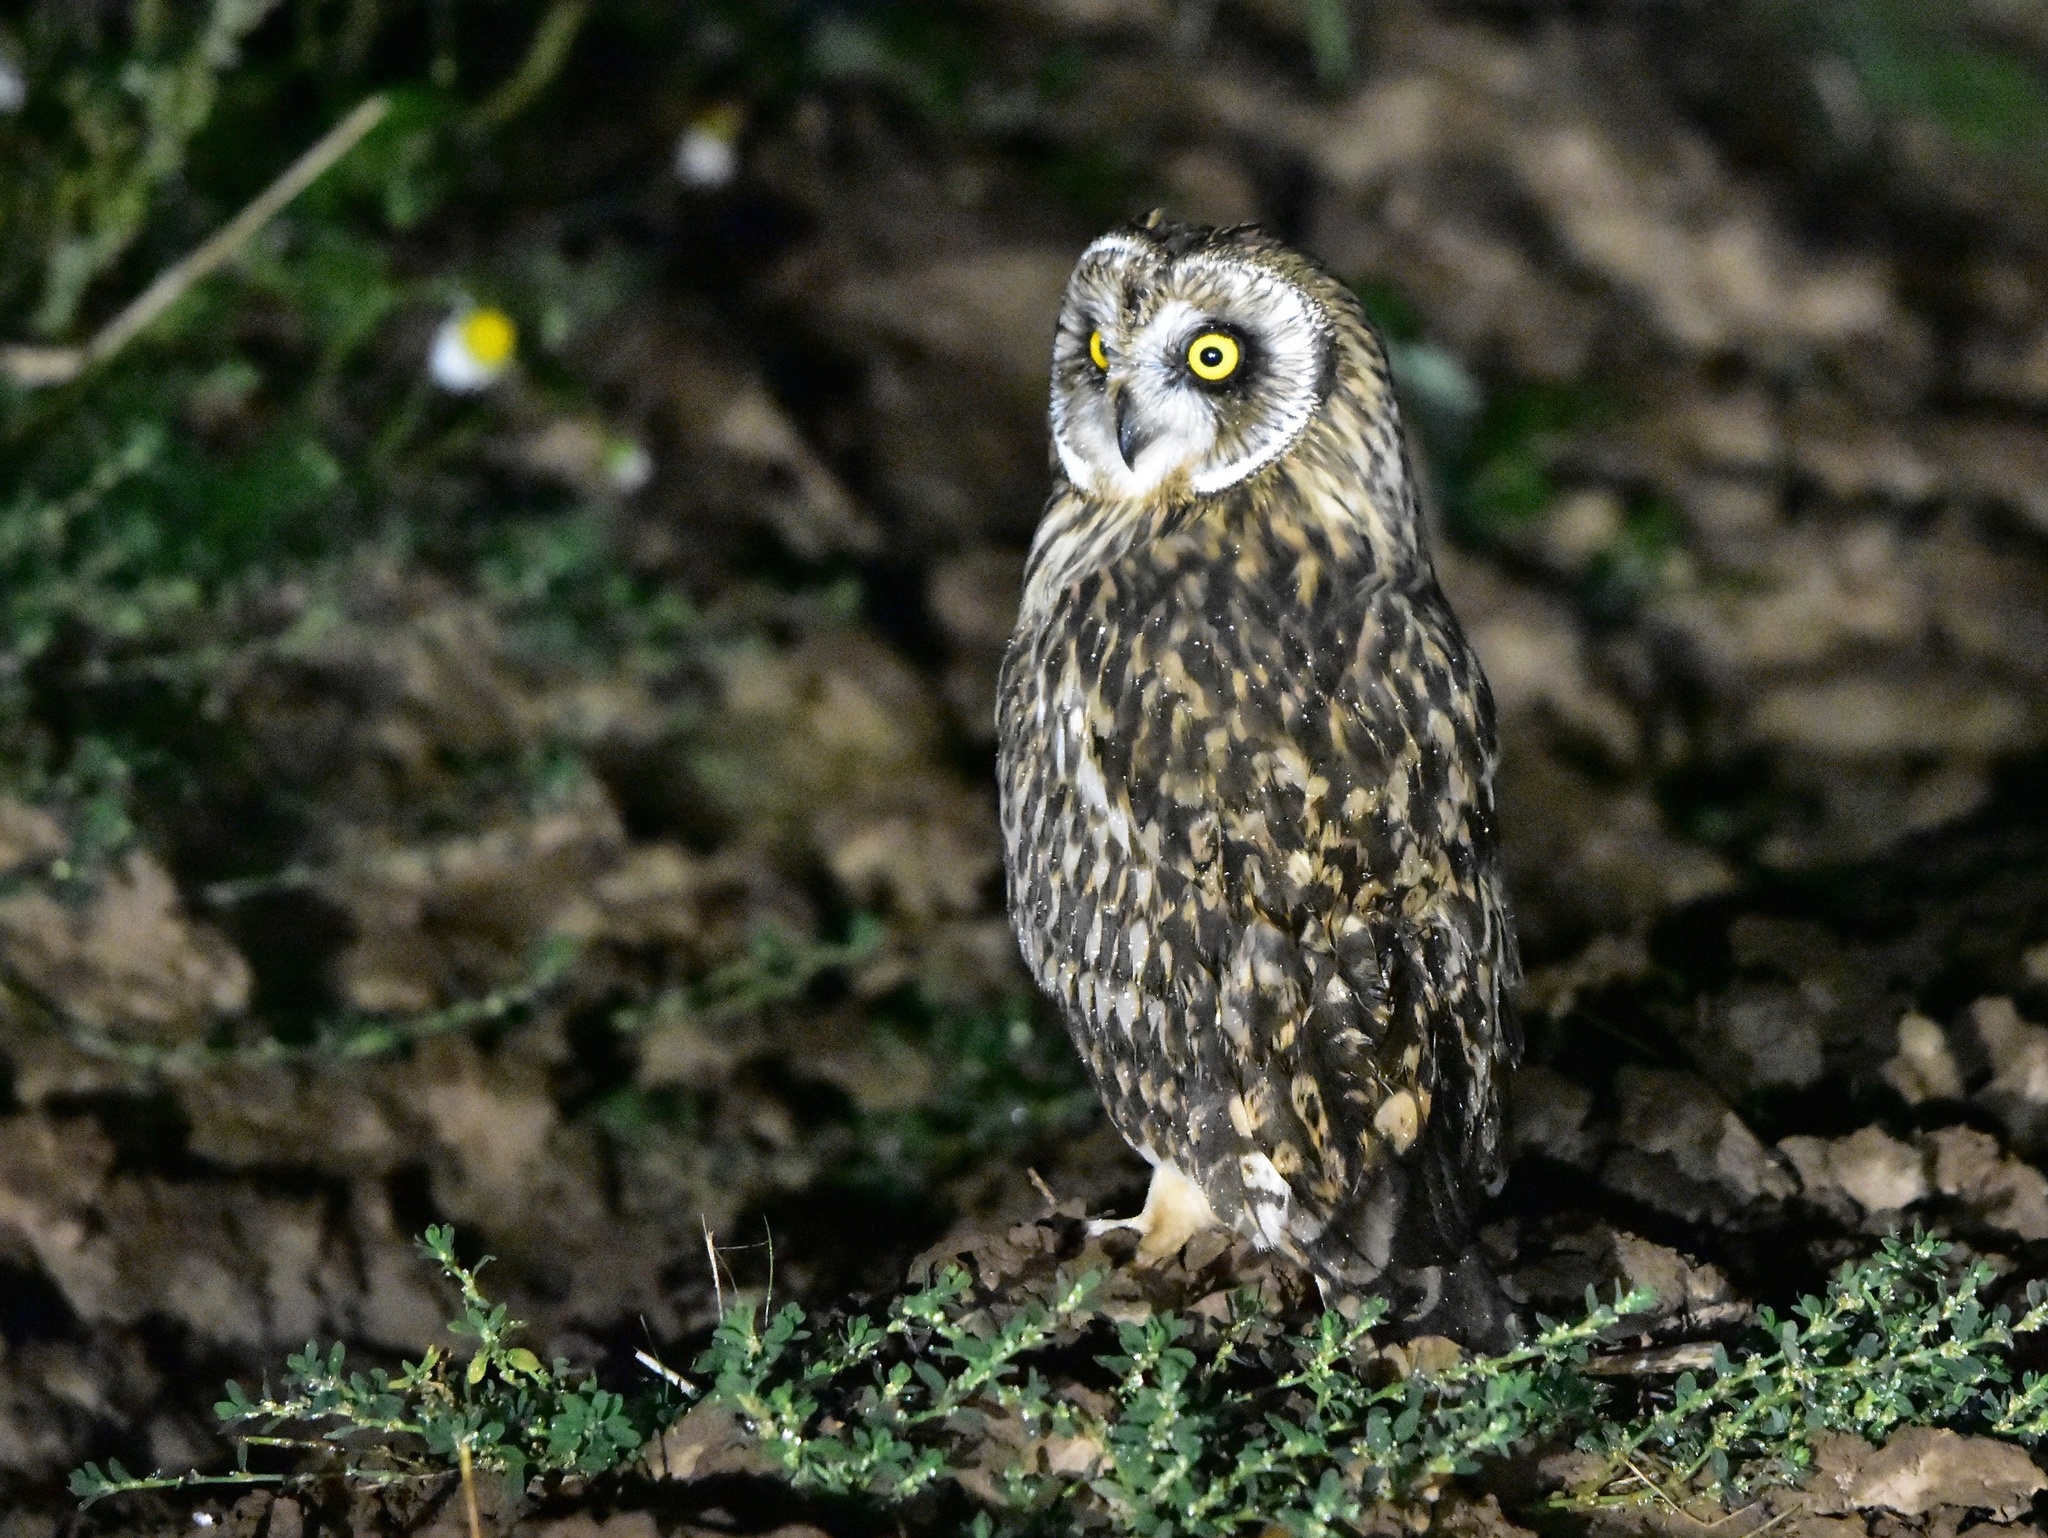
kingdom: Animalia
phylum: Chordata
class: Aves
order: Strigiformes
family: Strigidae
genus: Asio
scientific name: Asio flammeus
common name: Short-eared owl
